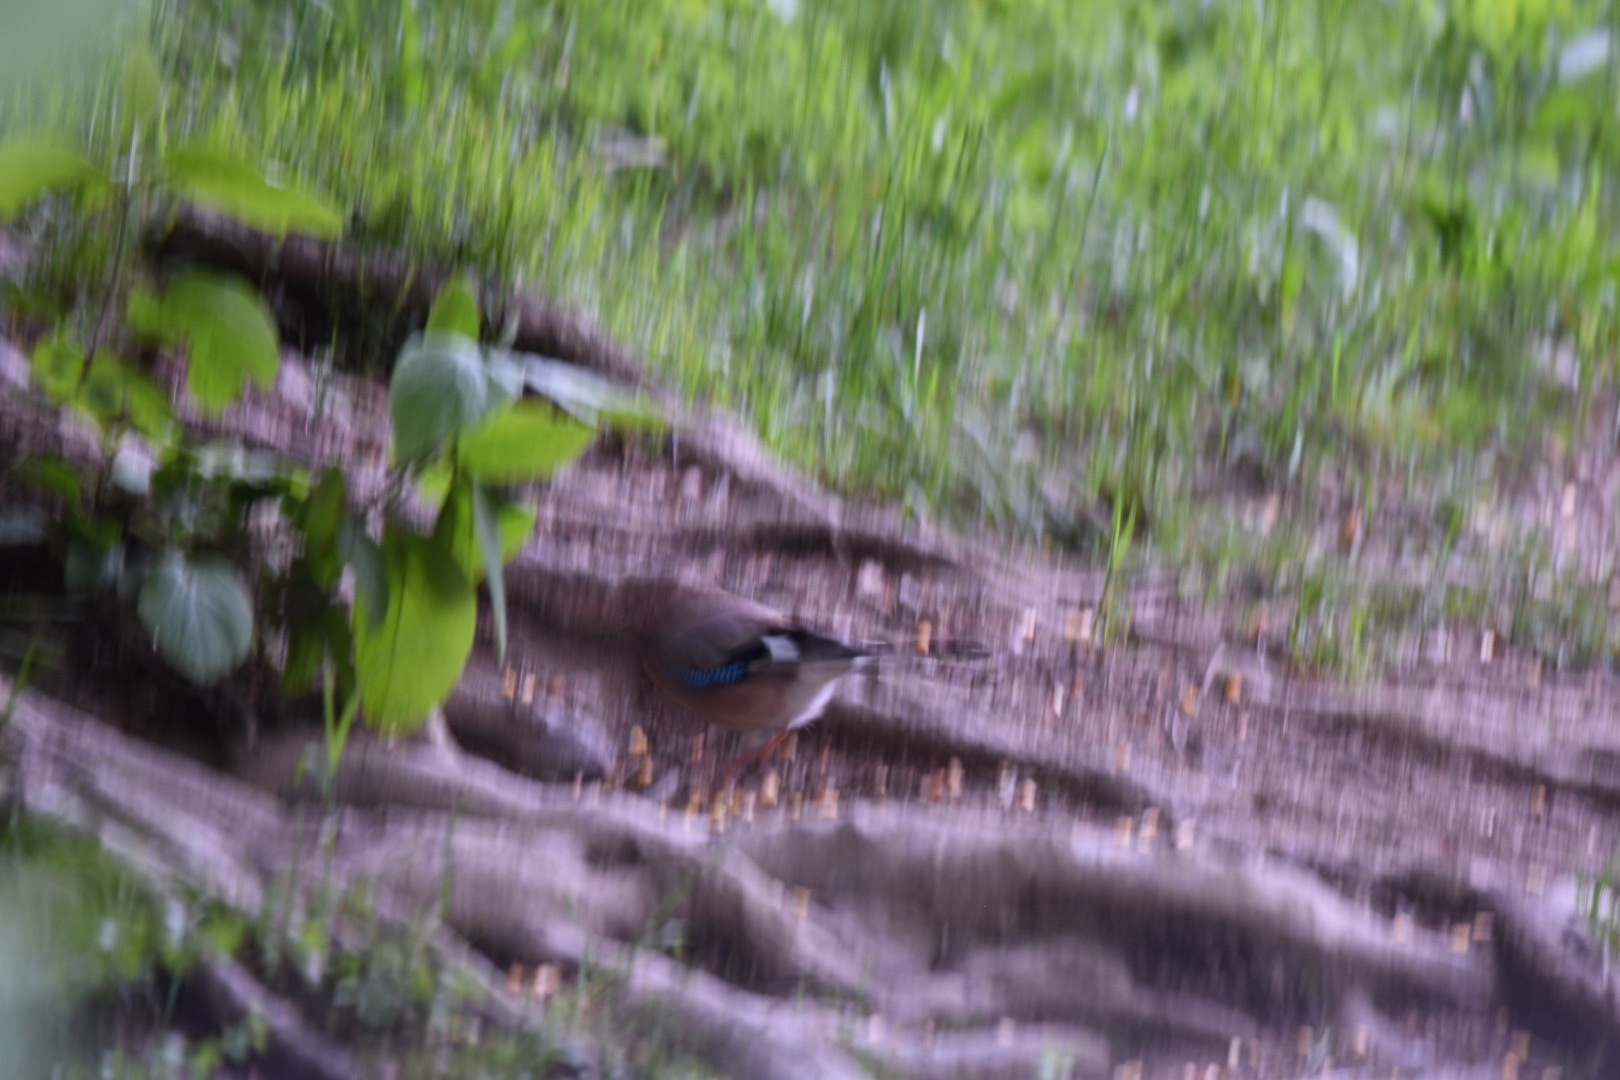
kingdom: Animalia
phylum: Chordata
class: Aves
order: Passeriformes
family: Corvidae
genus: Garrulus
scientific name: Garrulus glandarius
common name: Eurasian jay
